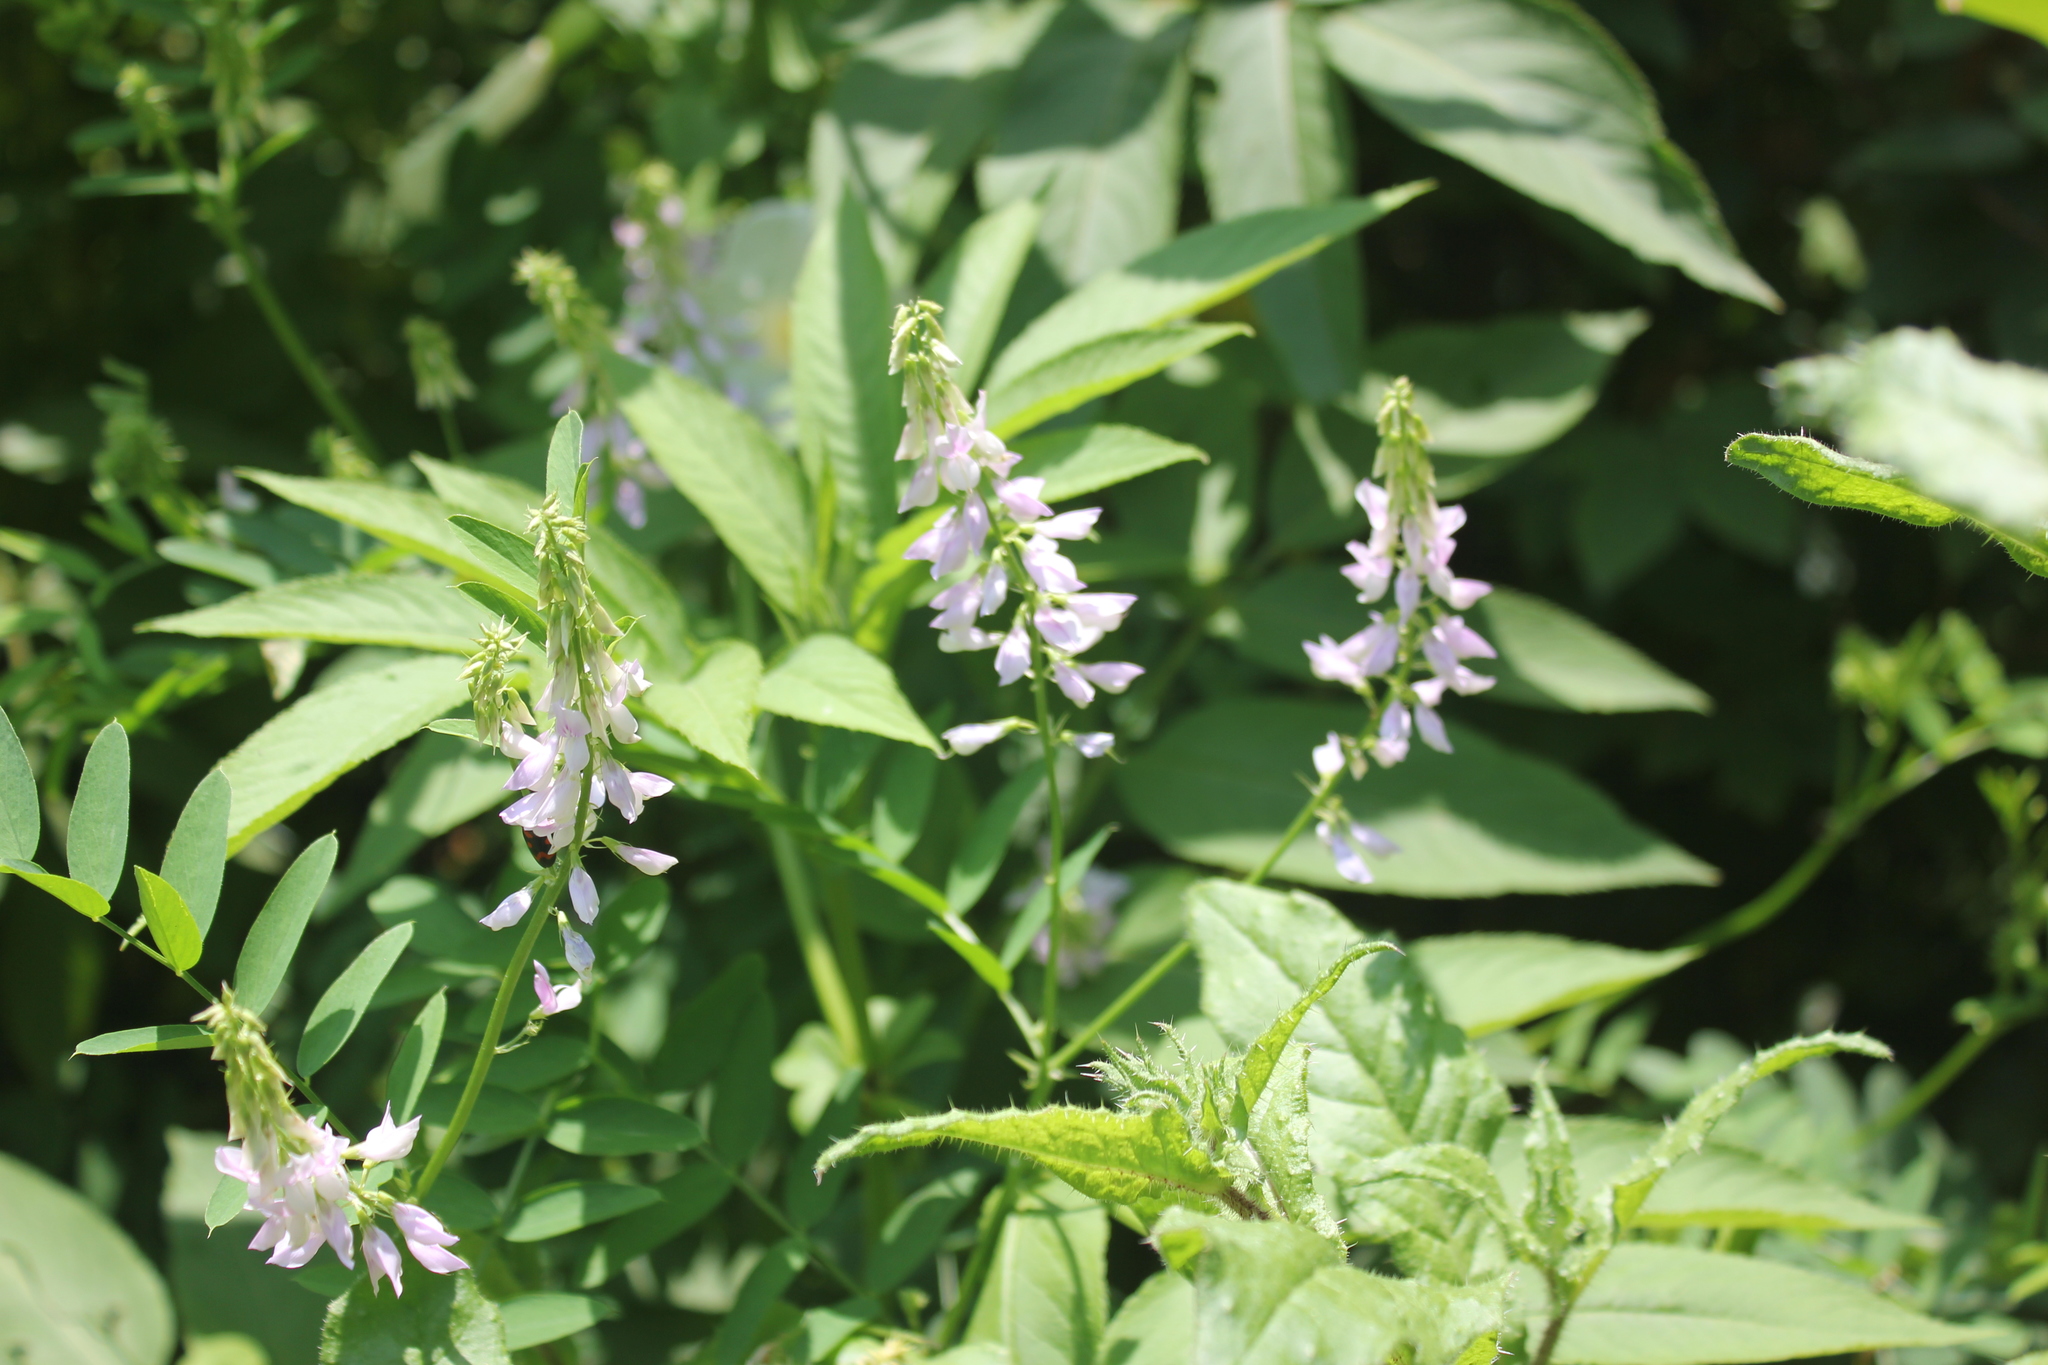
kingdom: Plantae
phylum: Tracheophyta
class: Magnoliopsida
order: Fabales
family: Fabaceae
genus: Galega
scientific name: Galega officinalis
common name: Goat's-rue
